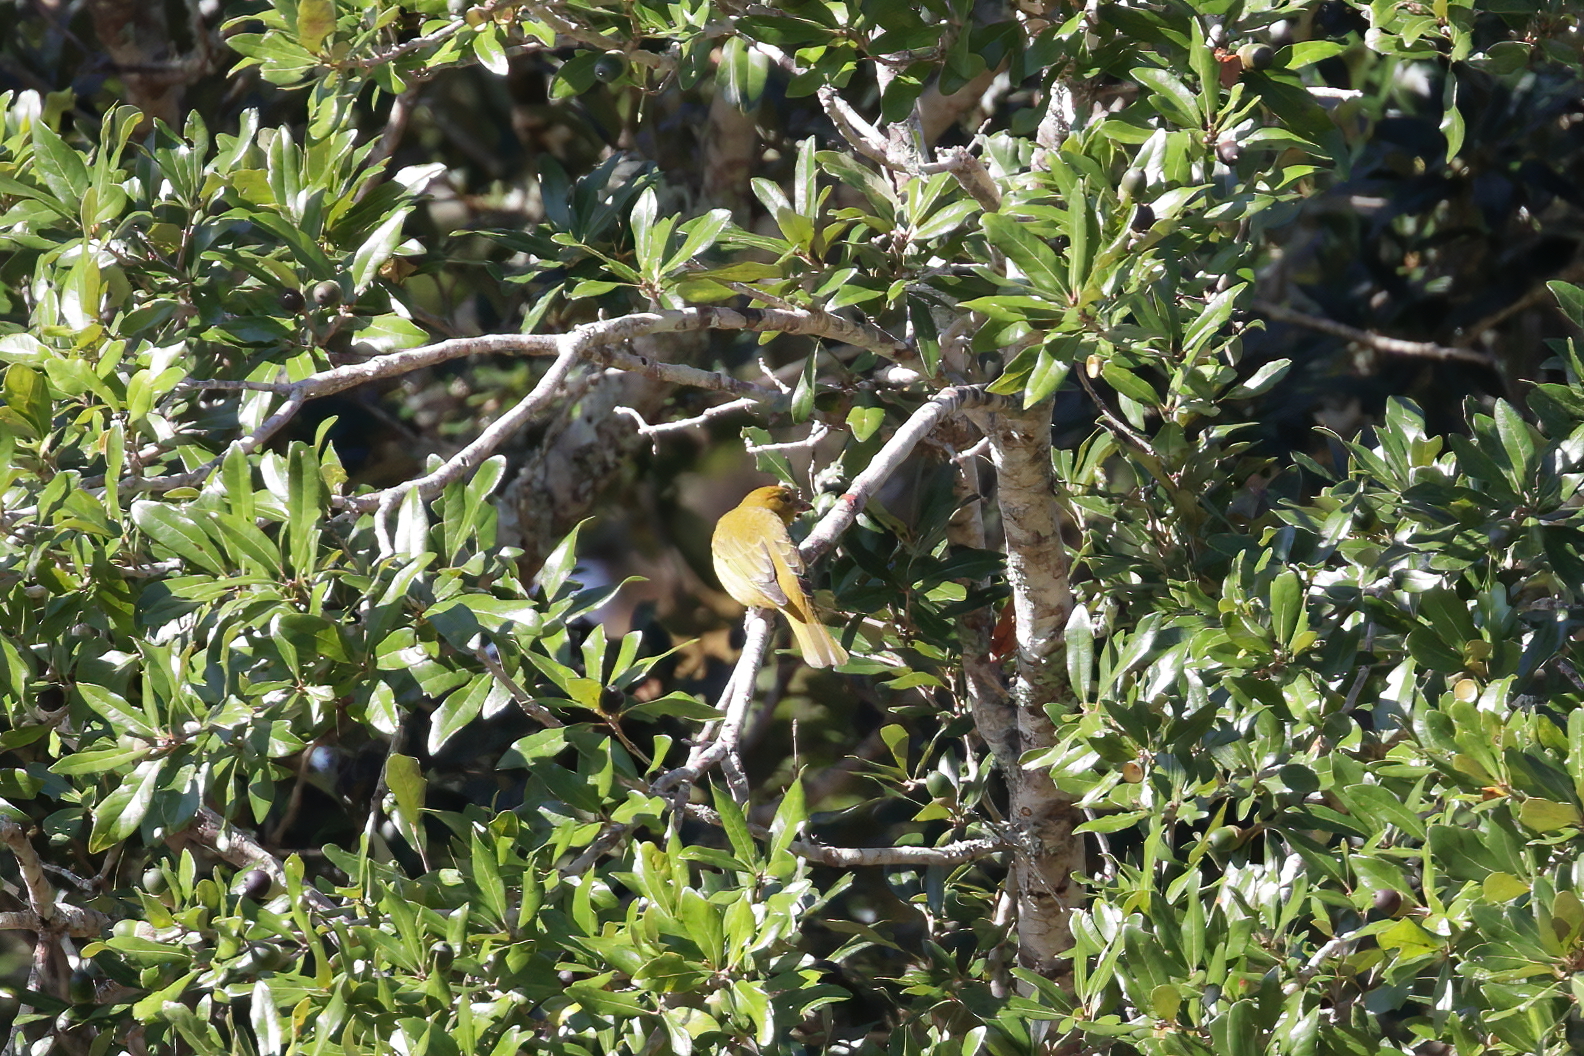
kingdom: Animalia
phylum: Chordata
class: Aves
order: Passeriformes
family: Cardinalidae
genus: Piranga
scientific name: Piranga rubra
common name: Summer tanager
